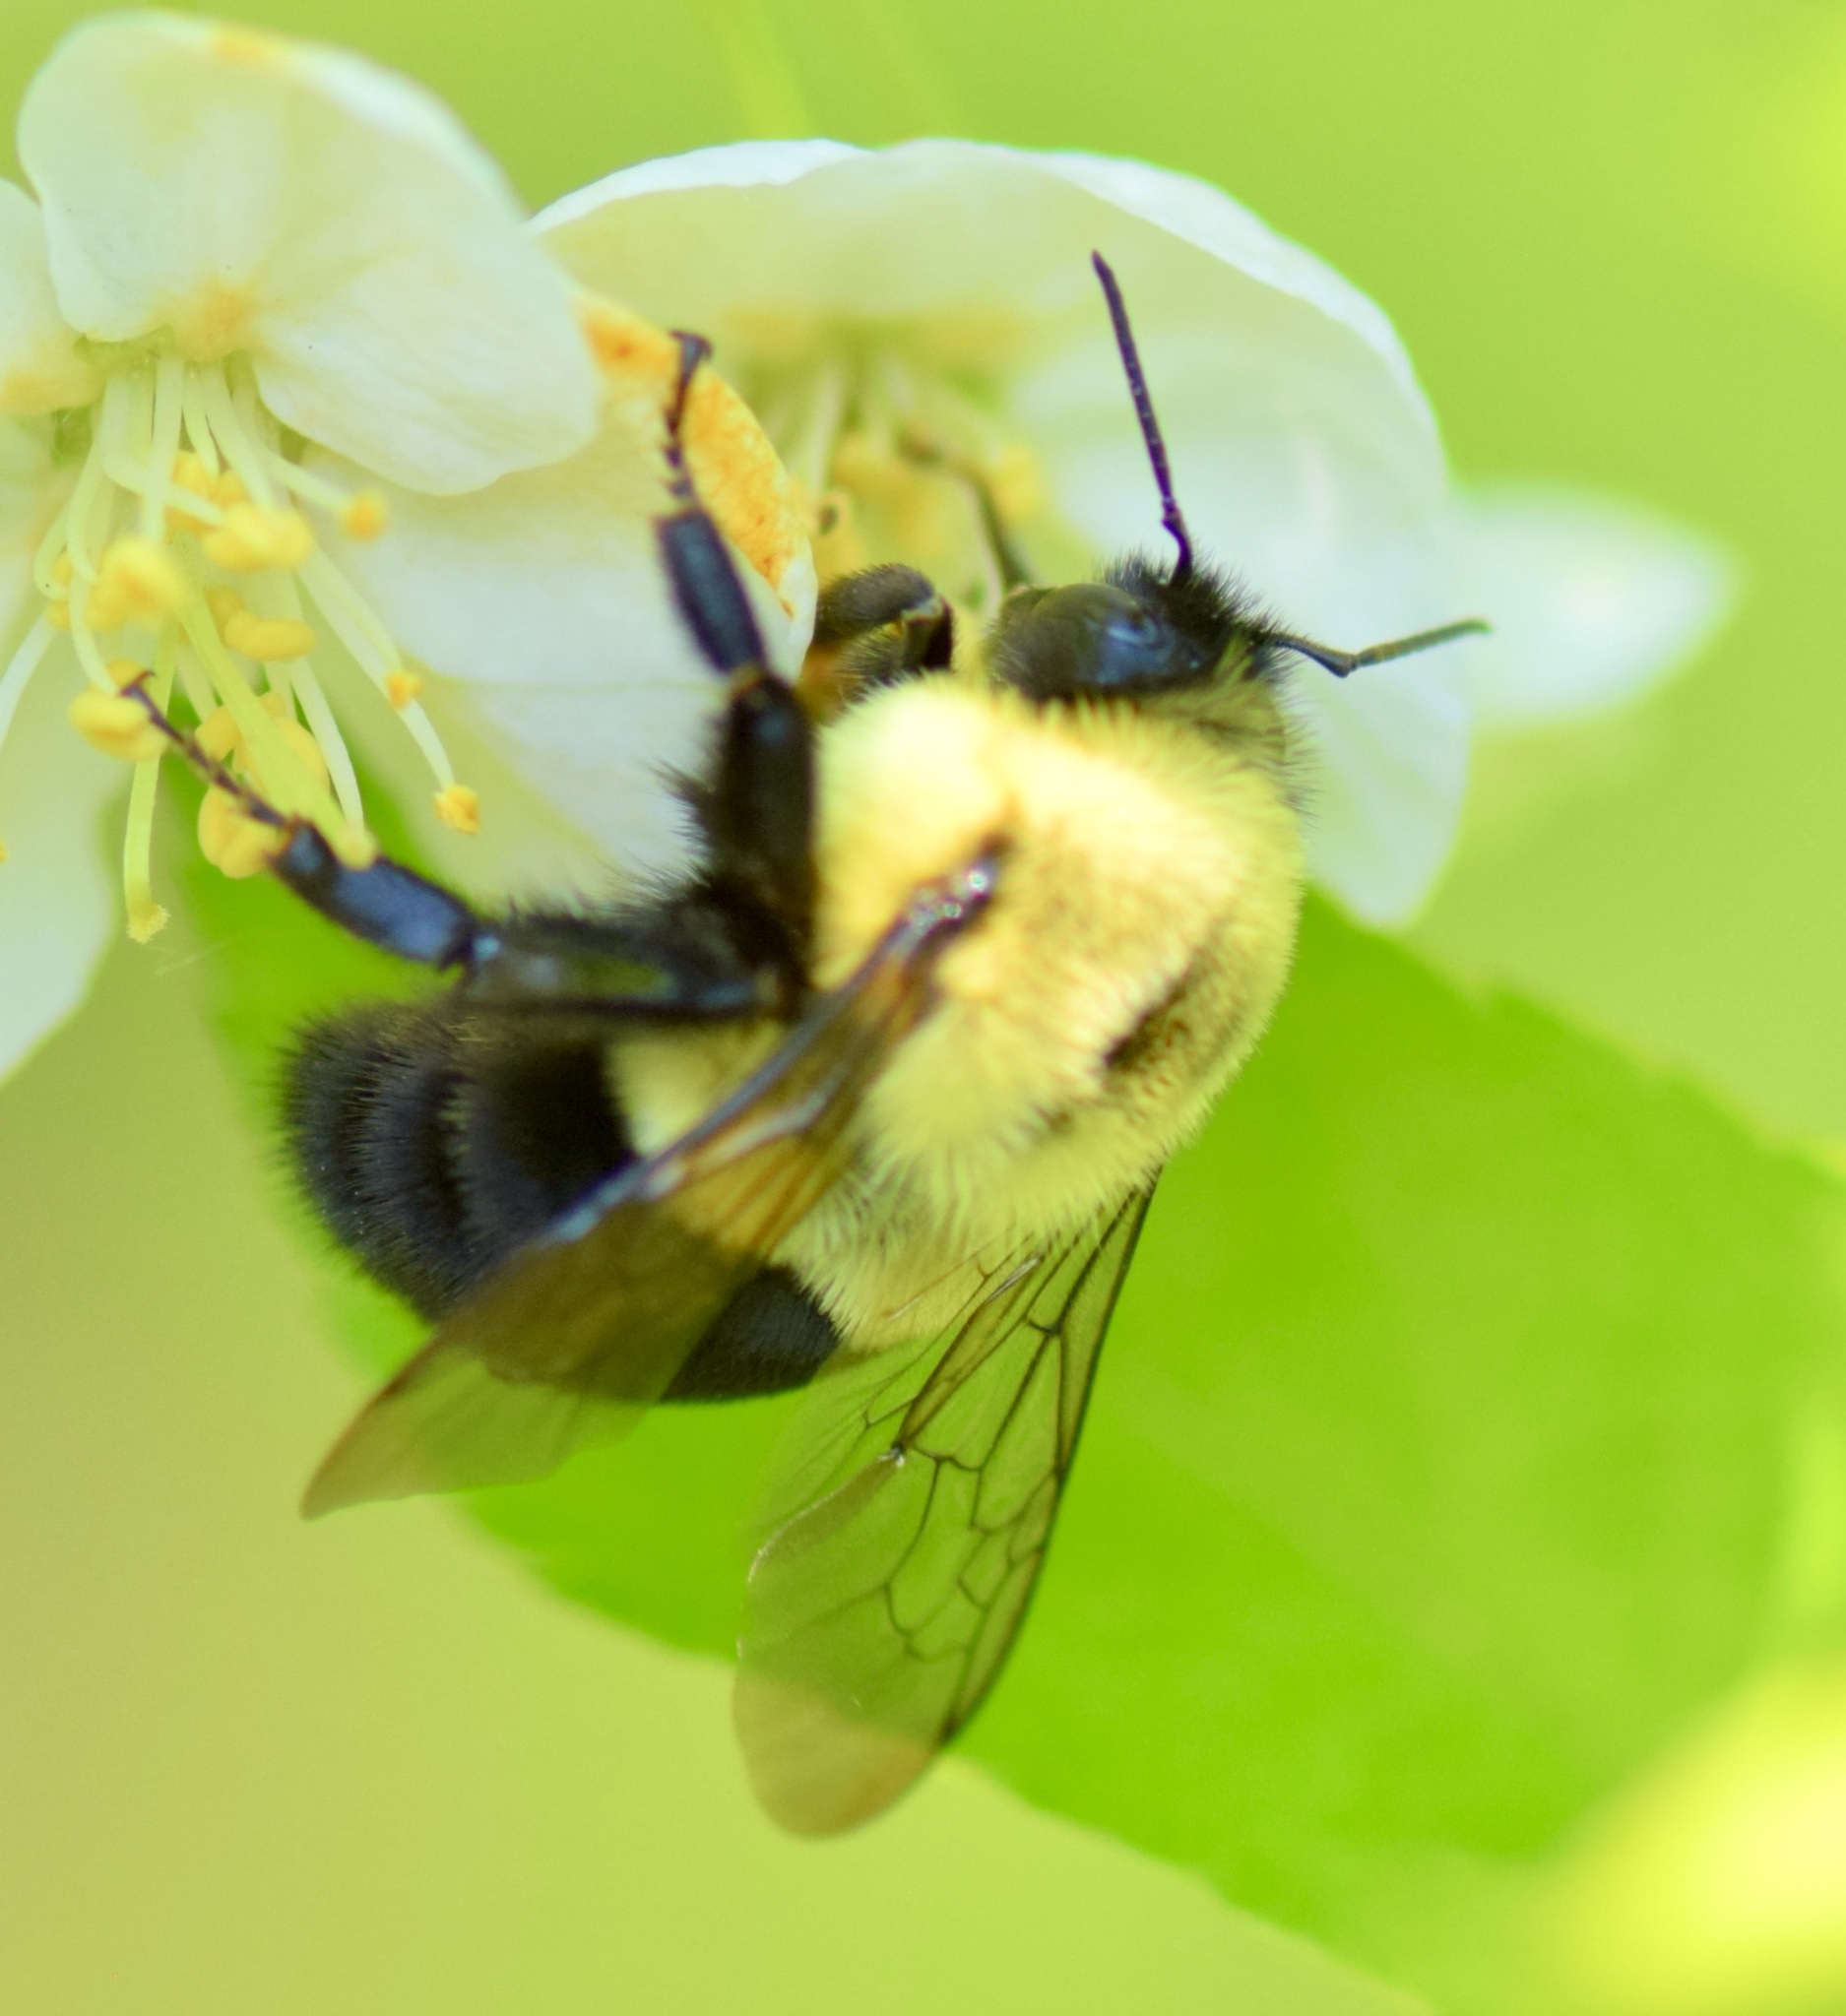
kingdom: Animalia
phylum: Arthropoda
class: Insecta
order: Hymenoptera
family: Apidae
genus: Bombus
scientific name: Bombus impatiens
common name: Common eastern bumble bee
